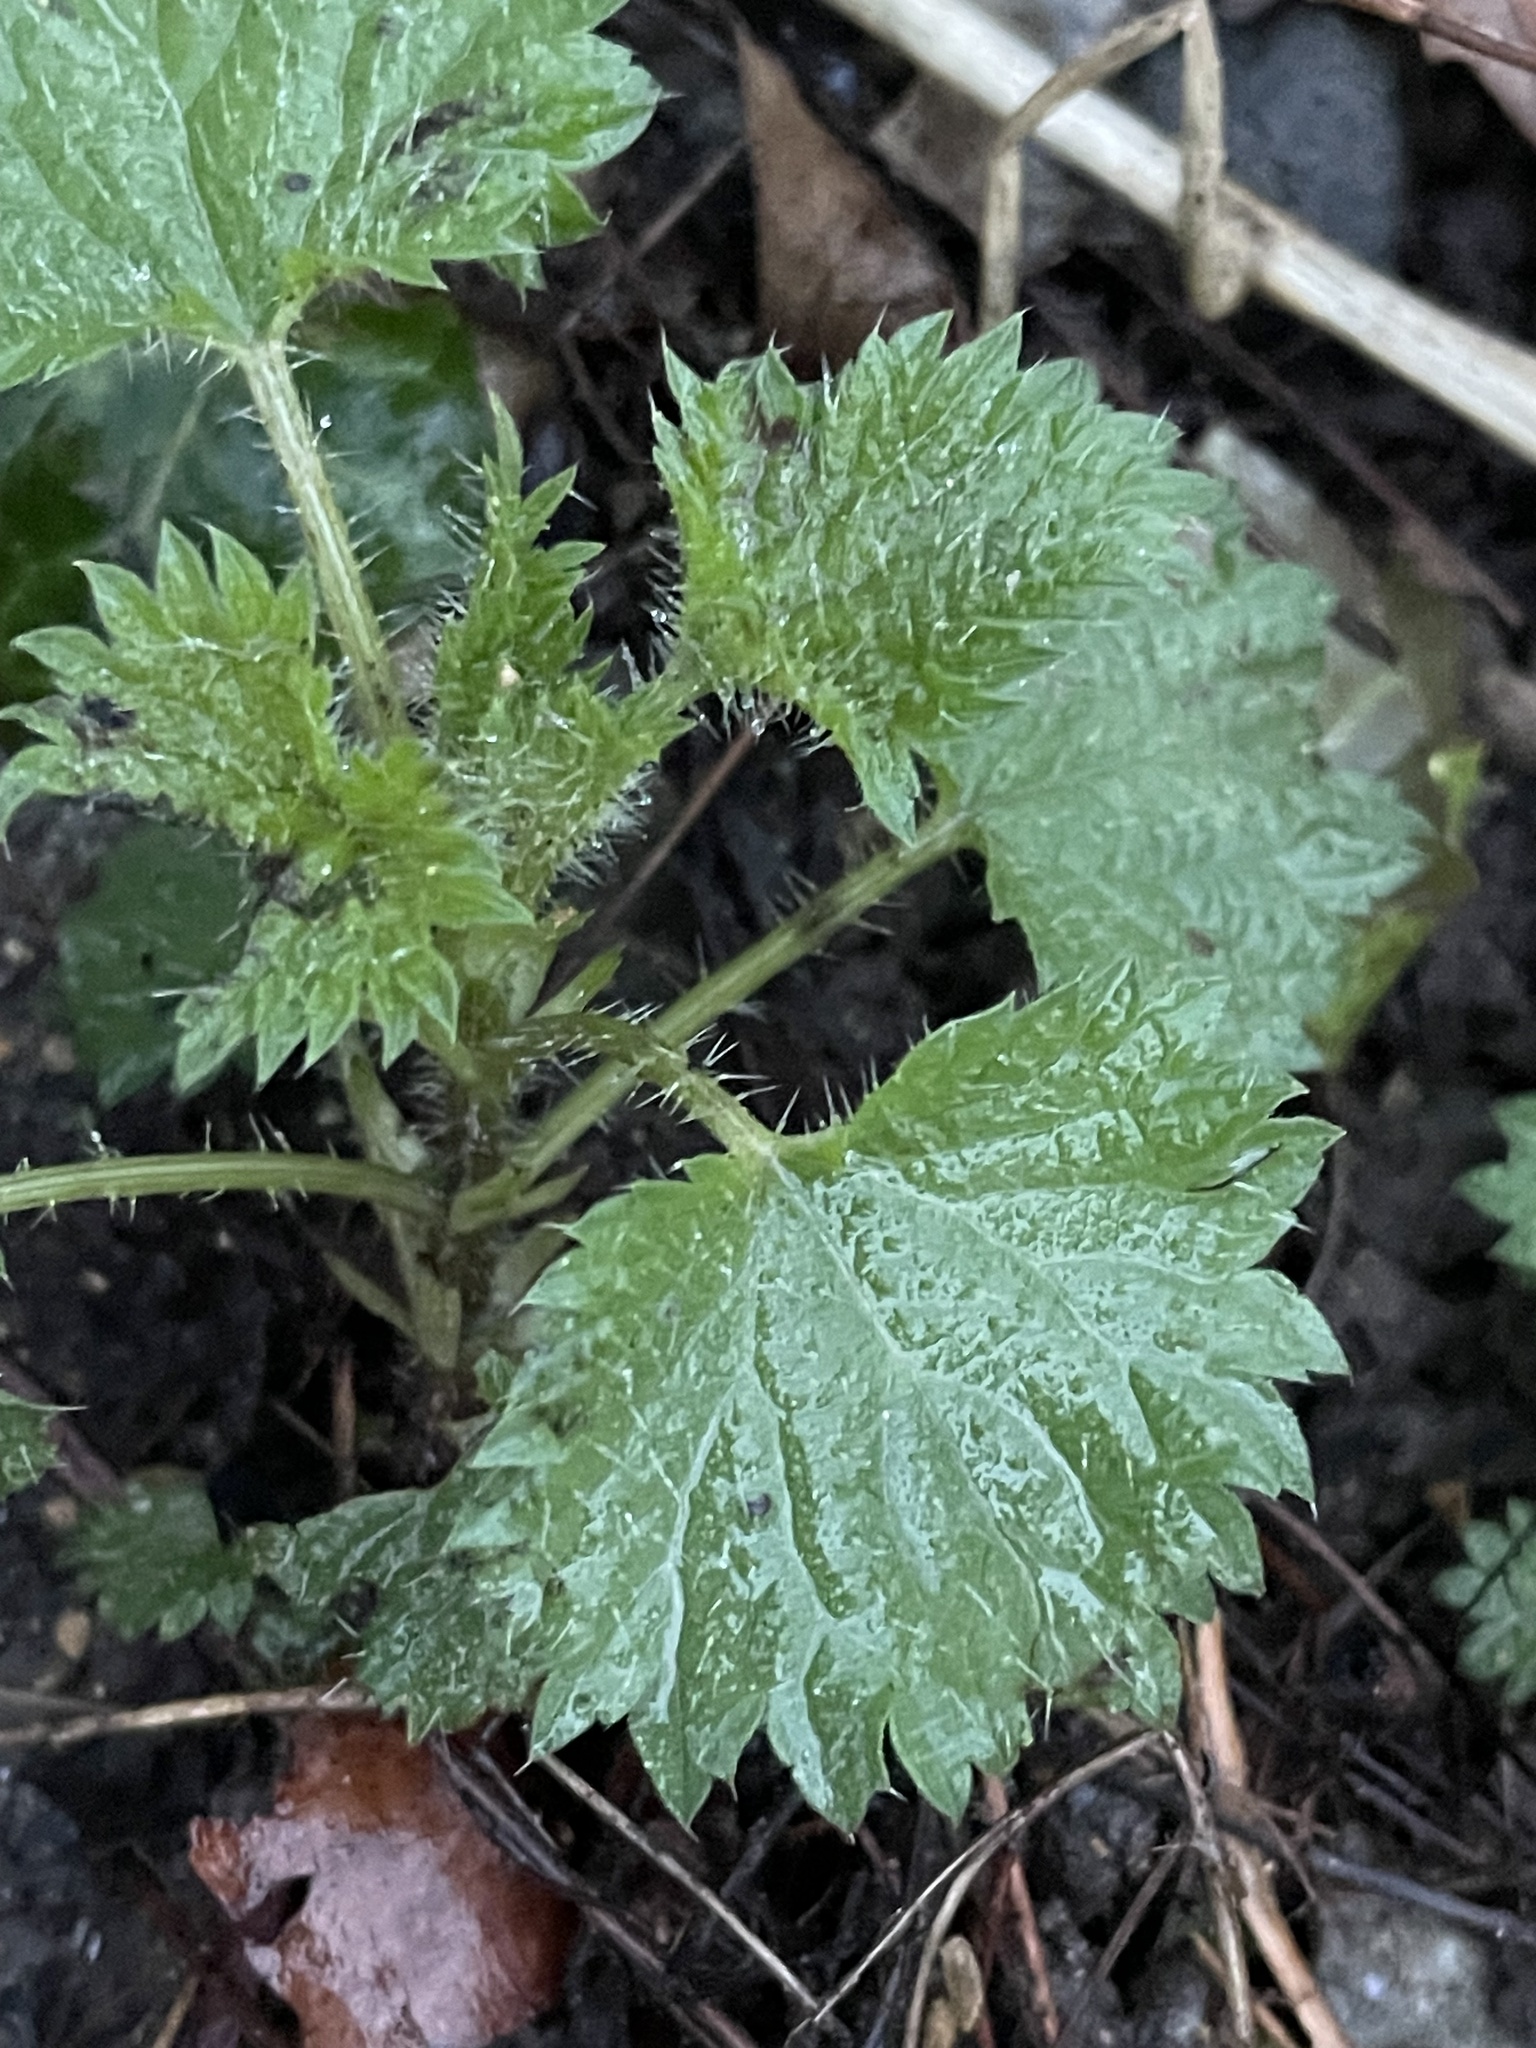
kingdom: Plantae
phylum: Tracheophyta
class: Magnoliopsida
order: Rosales
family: Urticaceae
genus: Urtica
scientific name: Urtica dioica
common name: Common nettle
